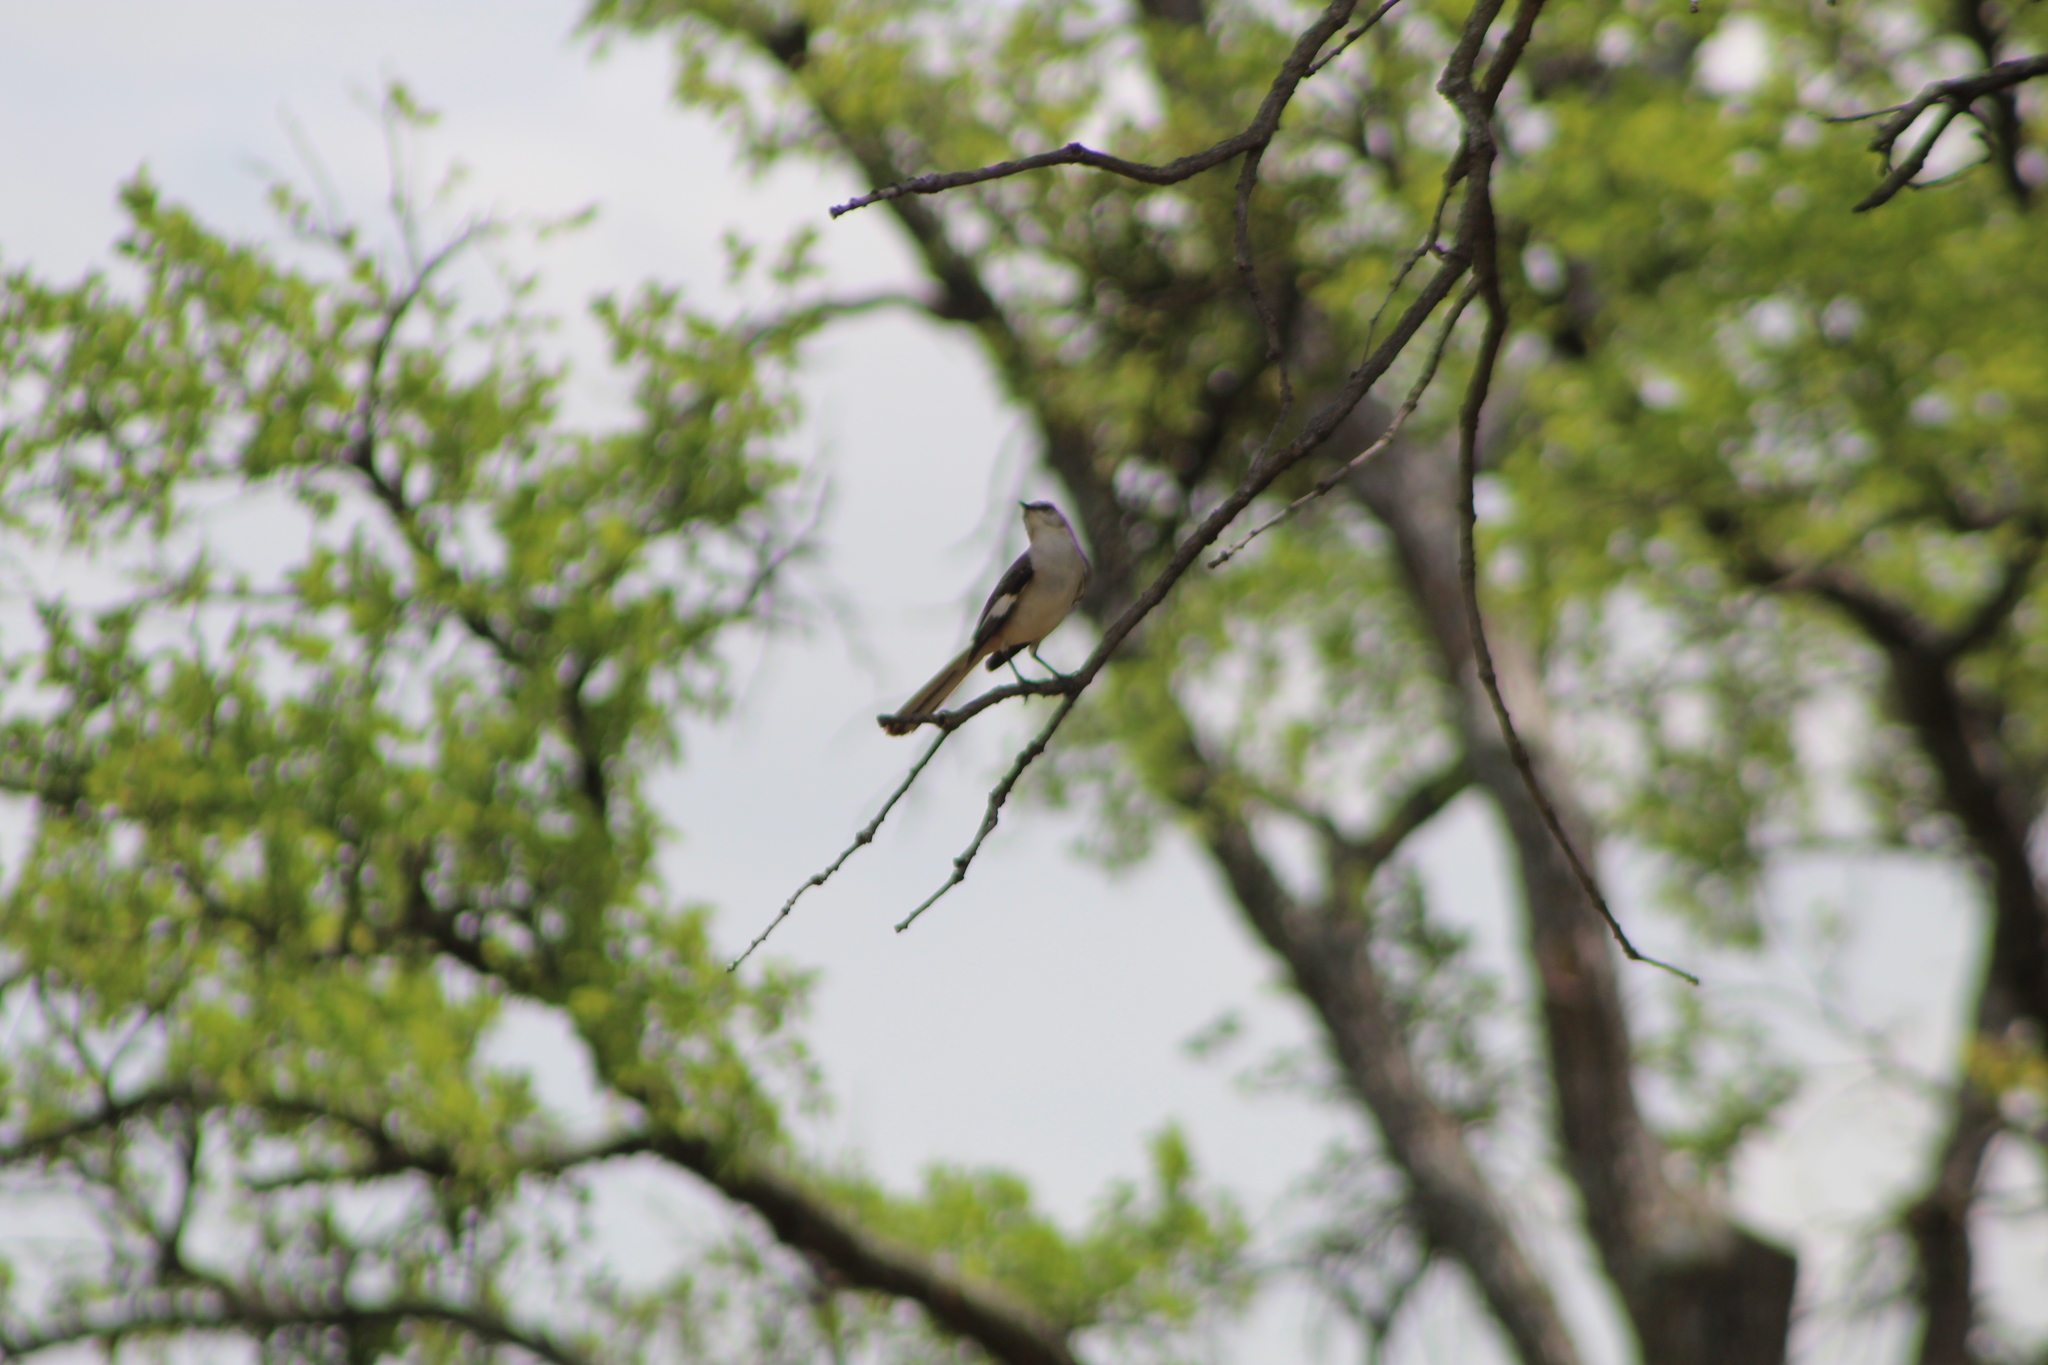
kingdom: Animalia
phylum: Chordata
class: Aves
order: Passeriformes
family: Mimidae
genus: Mimus
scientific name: Mimus polyglottos
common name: Northern mockingbird
